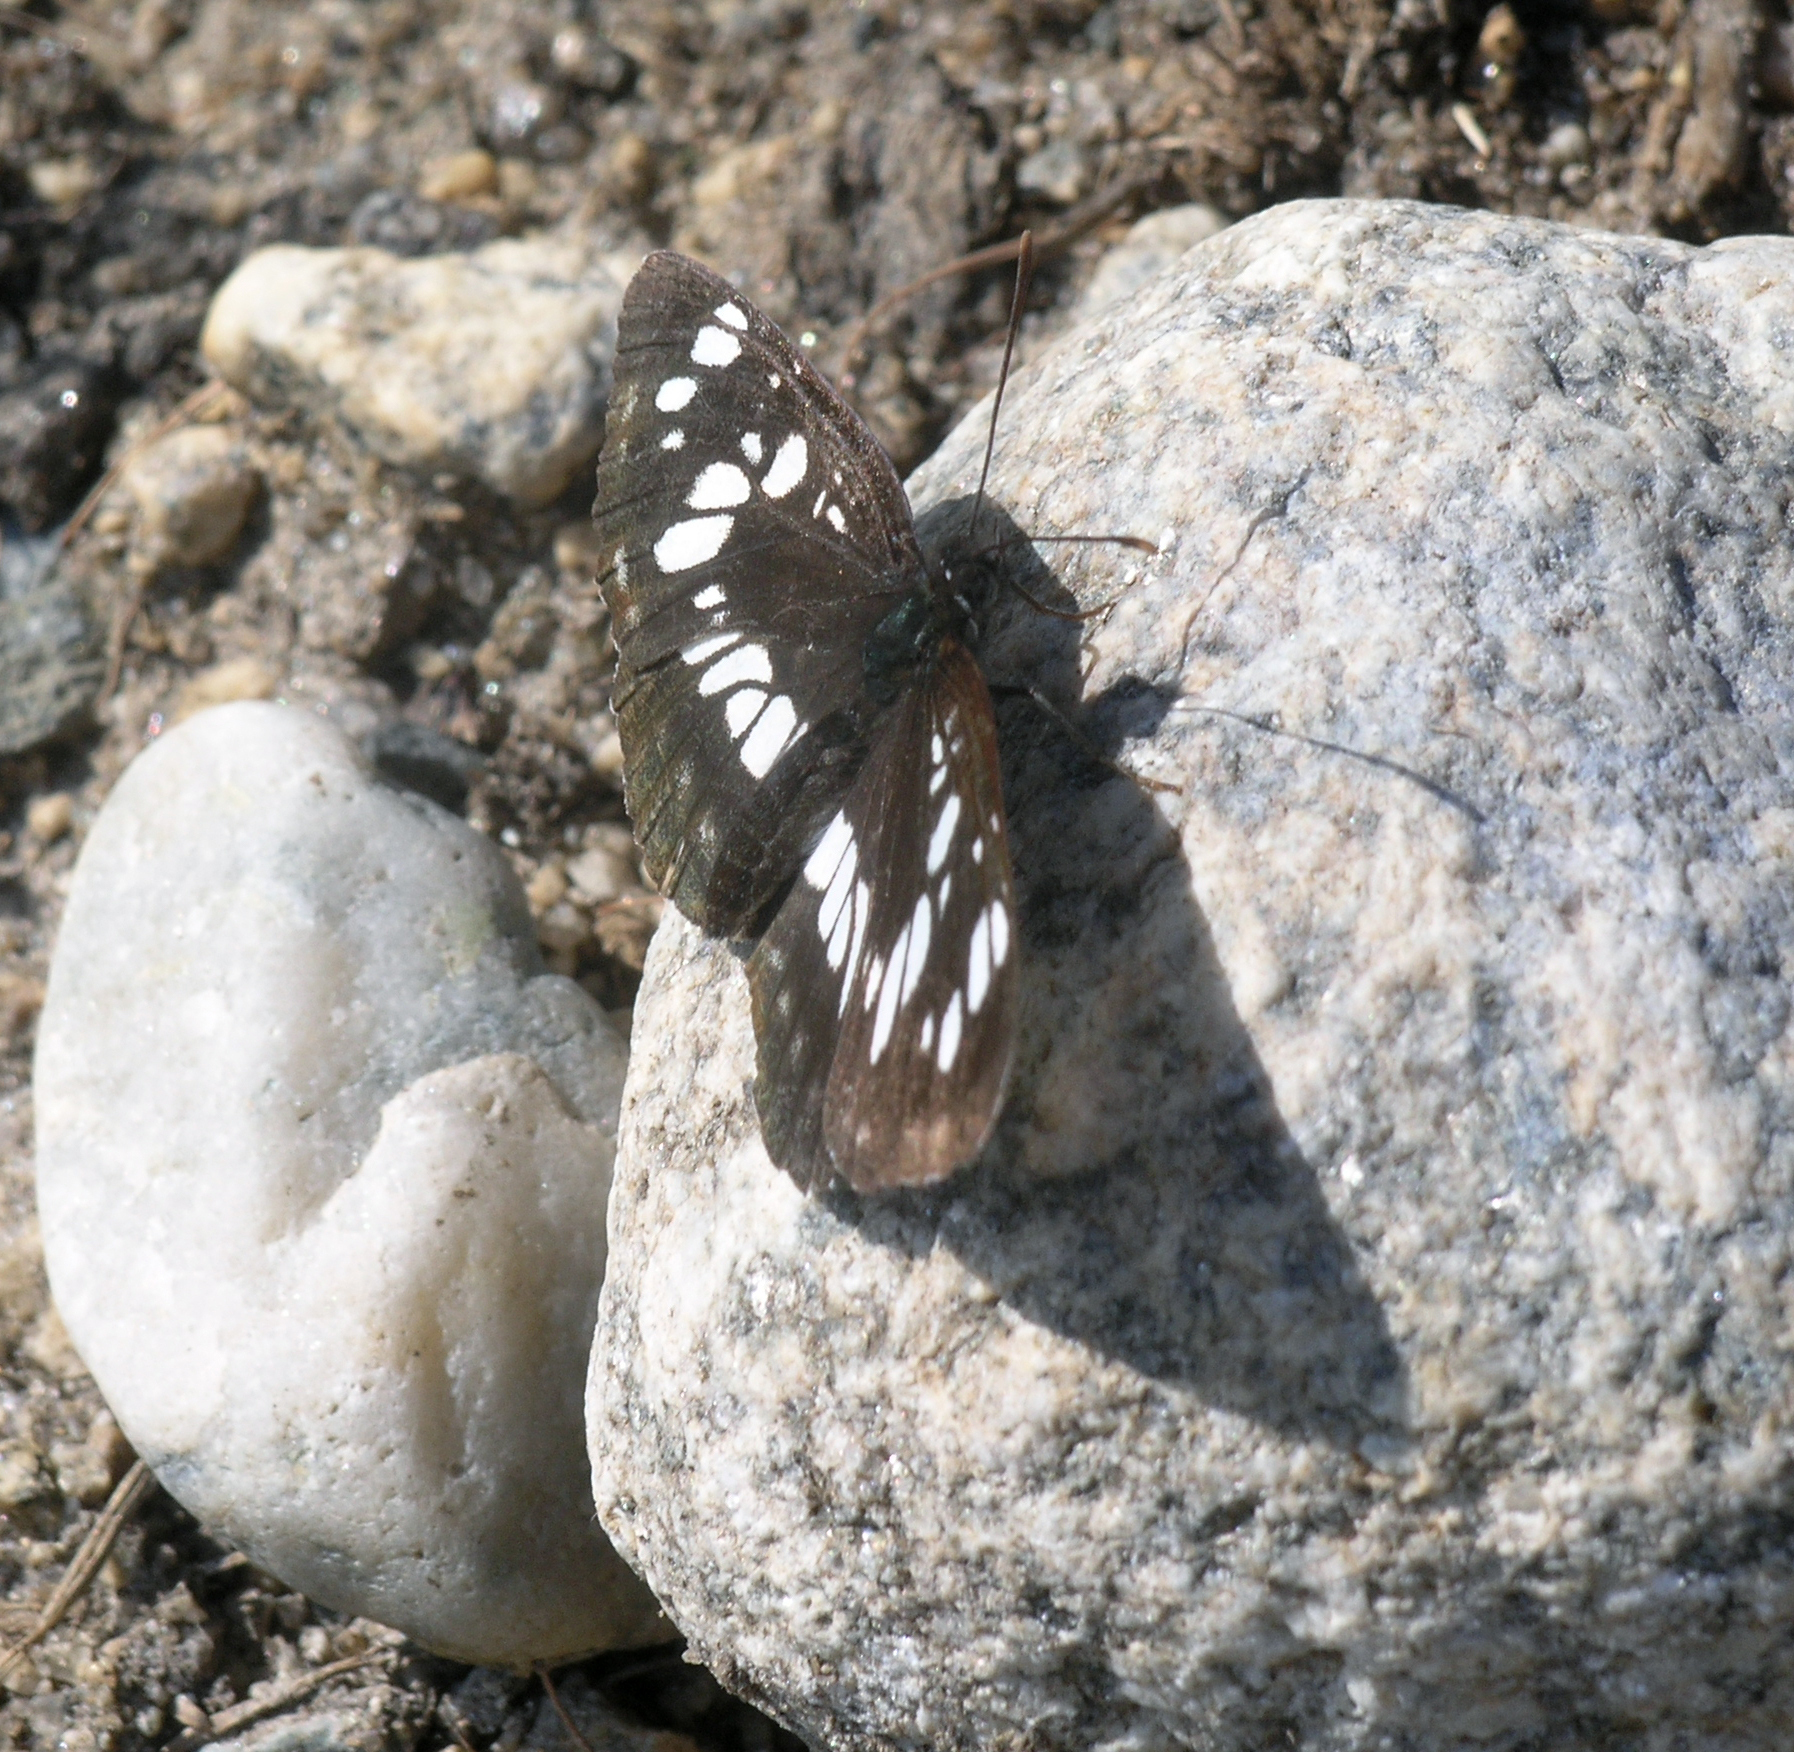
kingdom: Animalia
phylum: Arthropoda
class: Insecta
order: Lepidoptera
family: Nymphalidae
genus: Neptis
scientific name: Neptis rivularis
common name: Hungarian glider
